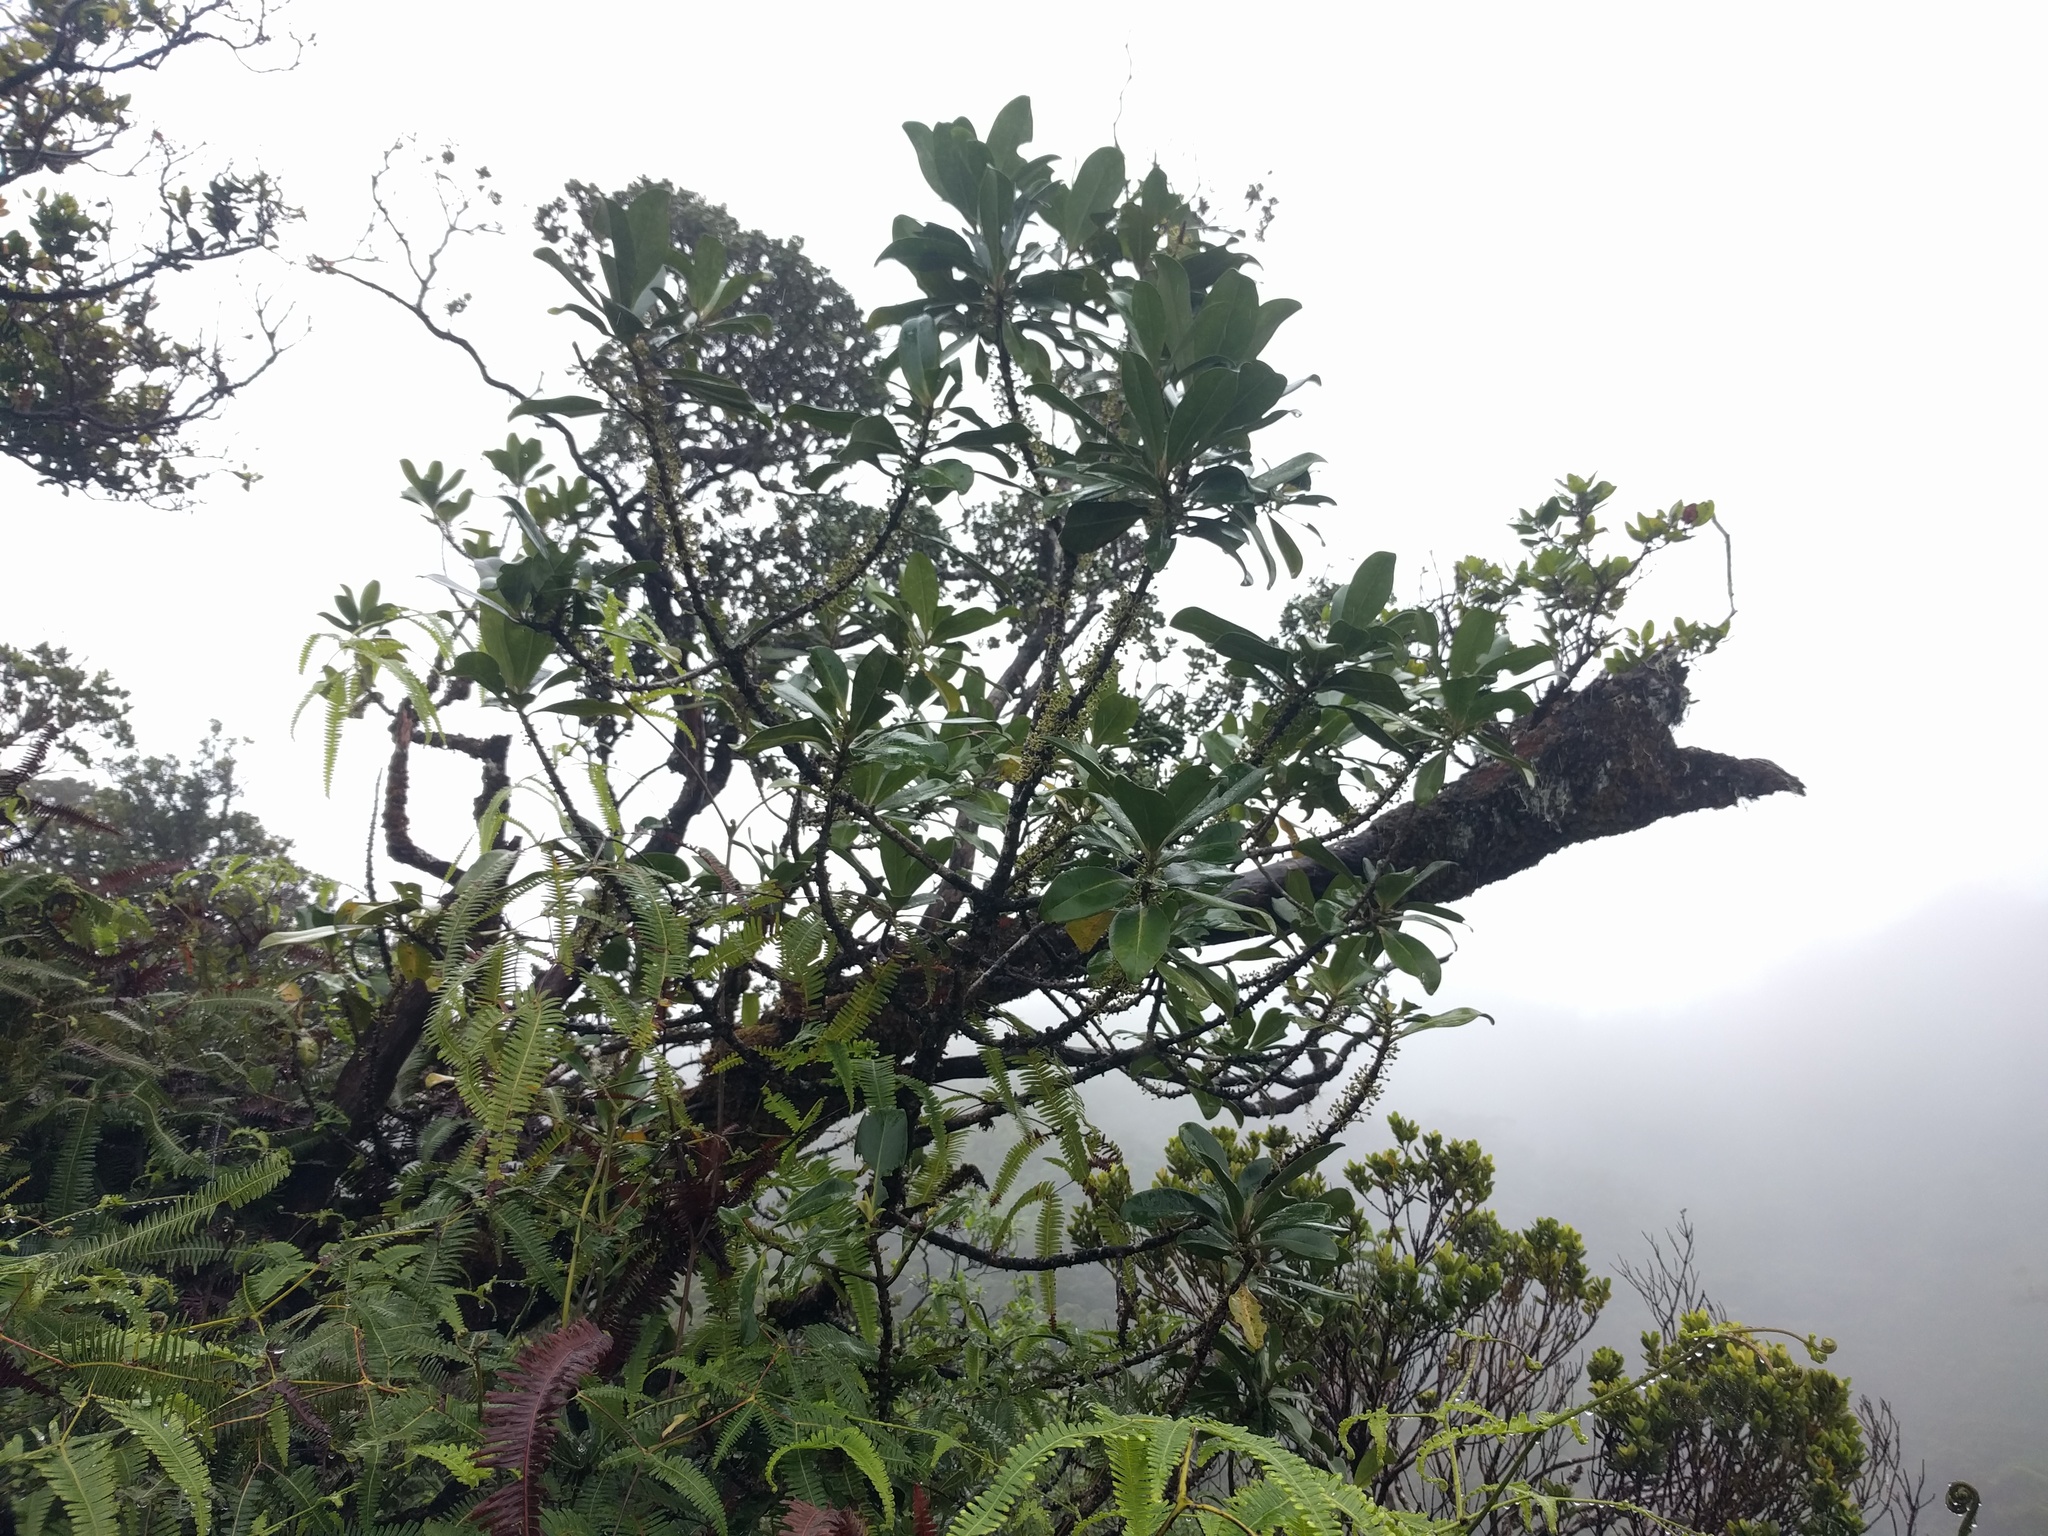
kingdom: Plantae
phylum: Tracheophyta
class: Magnoliopsida
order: Ericales
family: Primulaceae
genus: Myrsine
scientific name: Myrsine lessertiana
